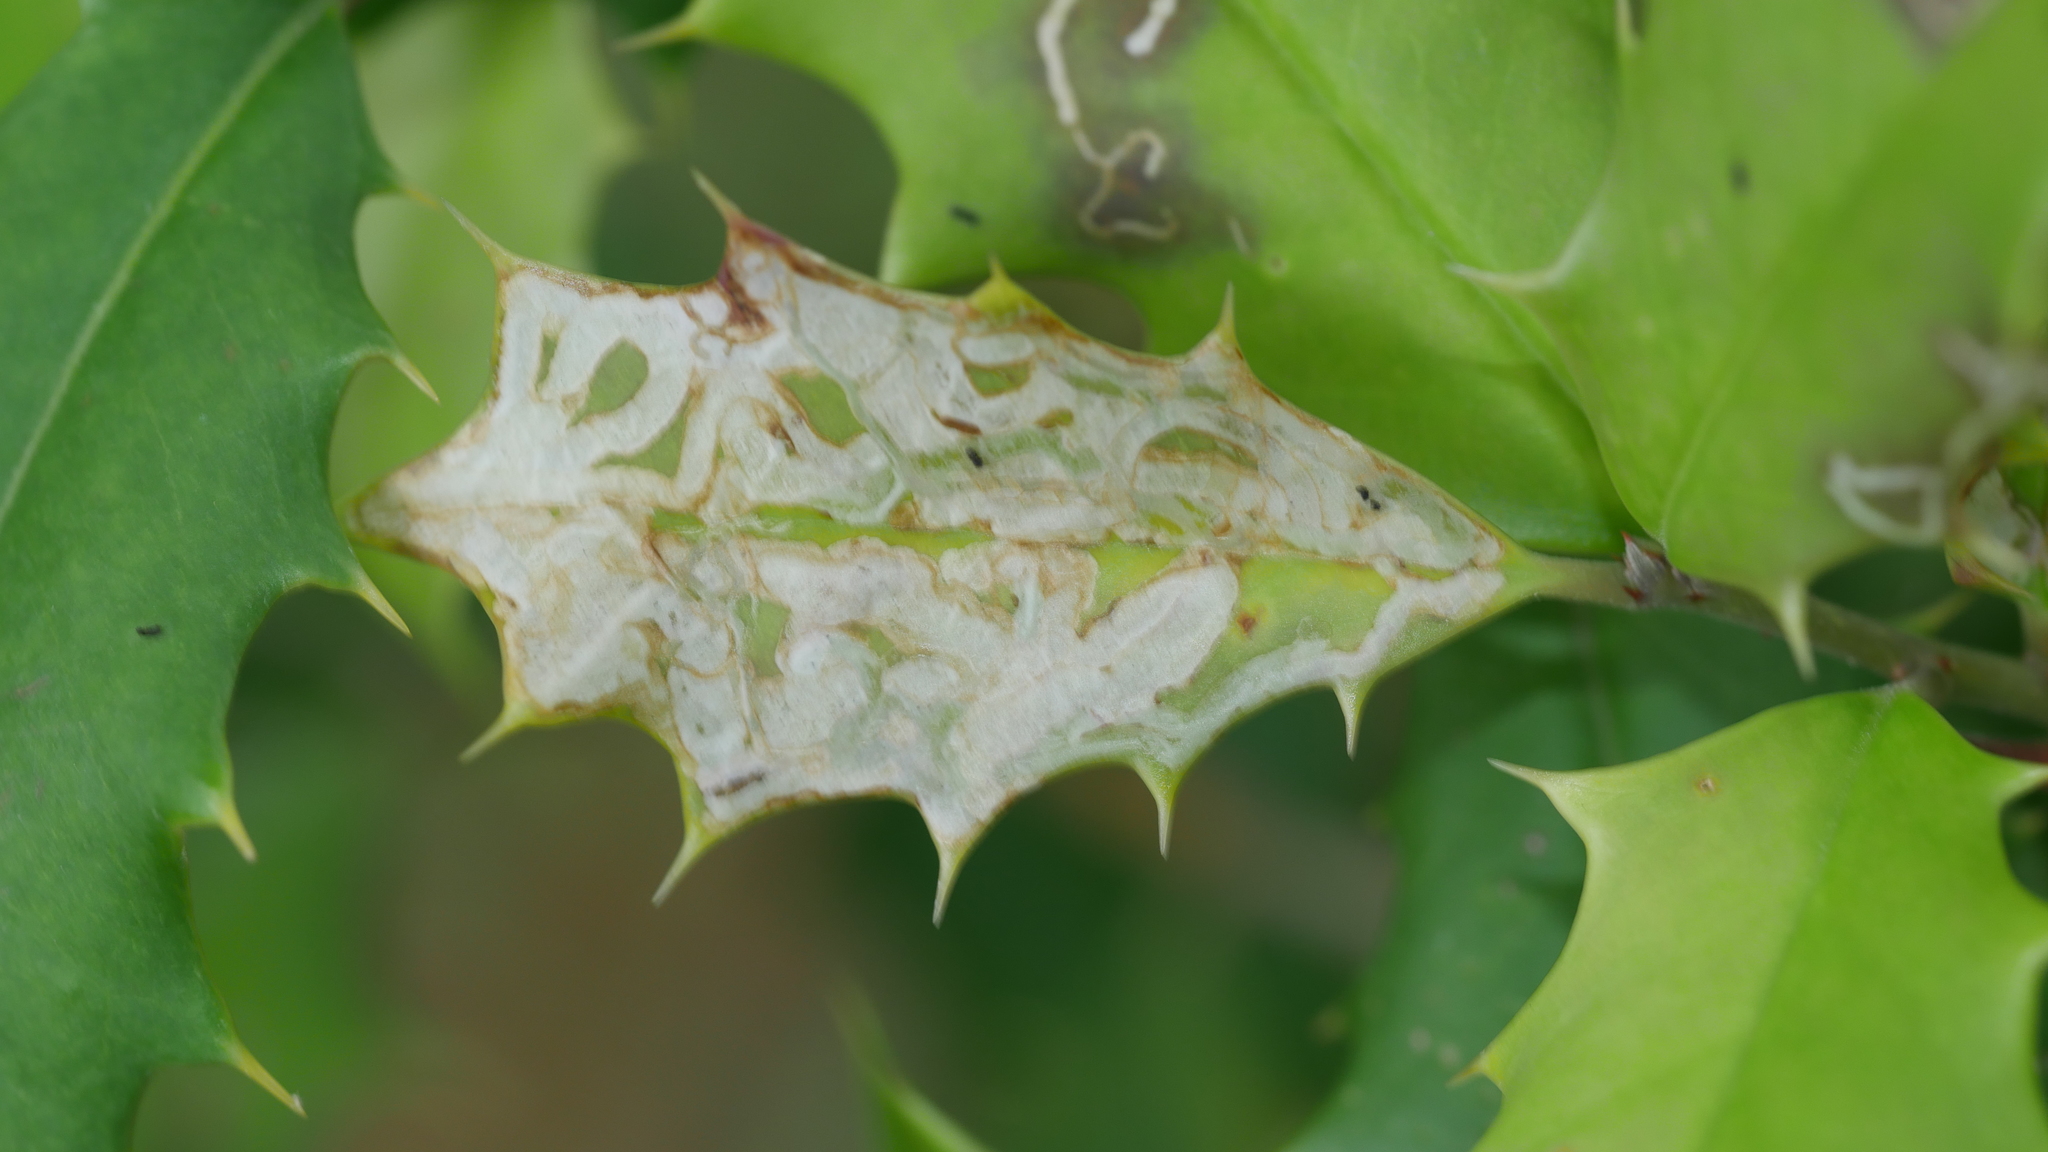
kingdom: Animalia
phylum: Arthropoda
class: Insecta
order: Diptera
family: Agromyzidae
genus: Phytomyza
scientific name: Phytomyza opacae
